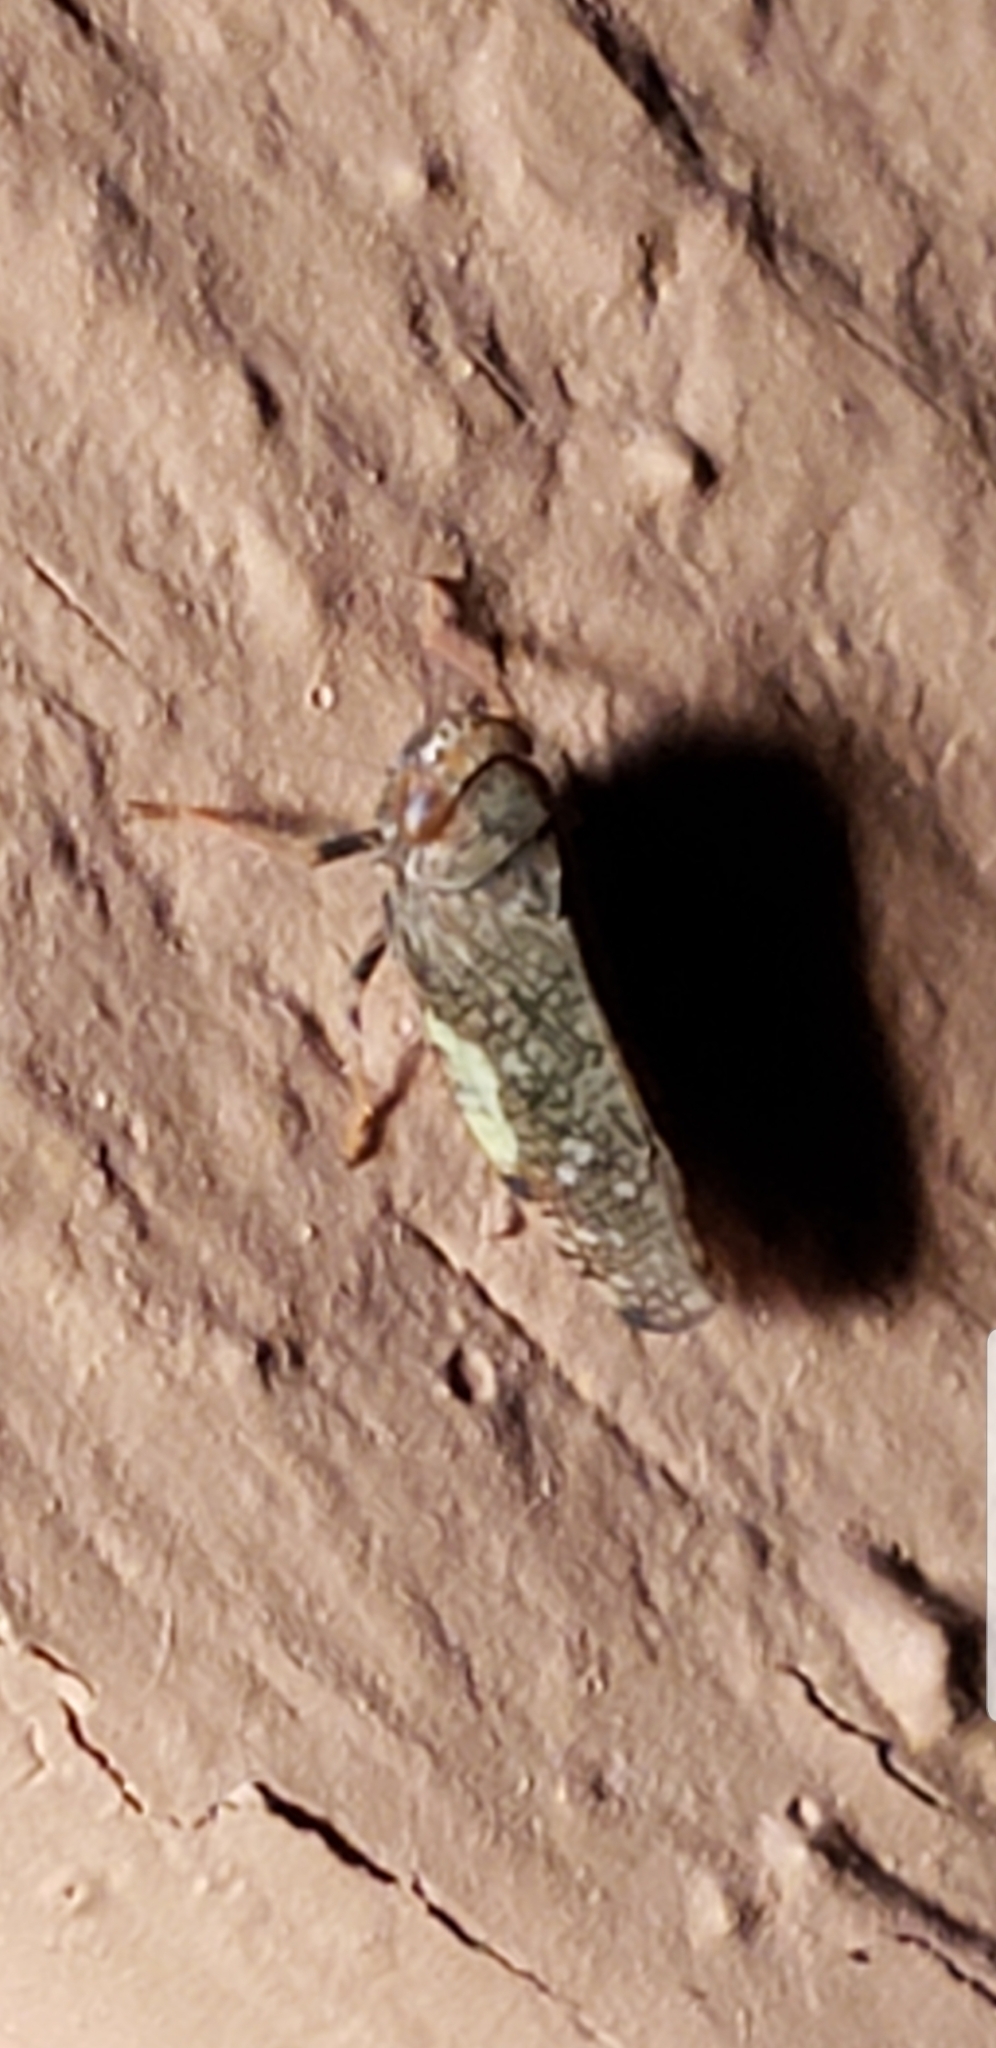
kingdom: Animalia
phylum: Arthropoda
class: Insecta
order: Hemiptera
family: Cicadellidae
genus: Orientus
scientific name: Orientus ishidae
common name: Japanese leafhopper
